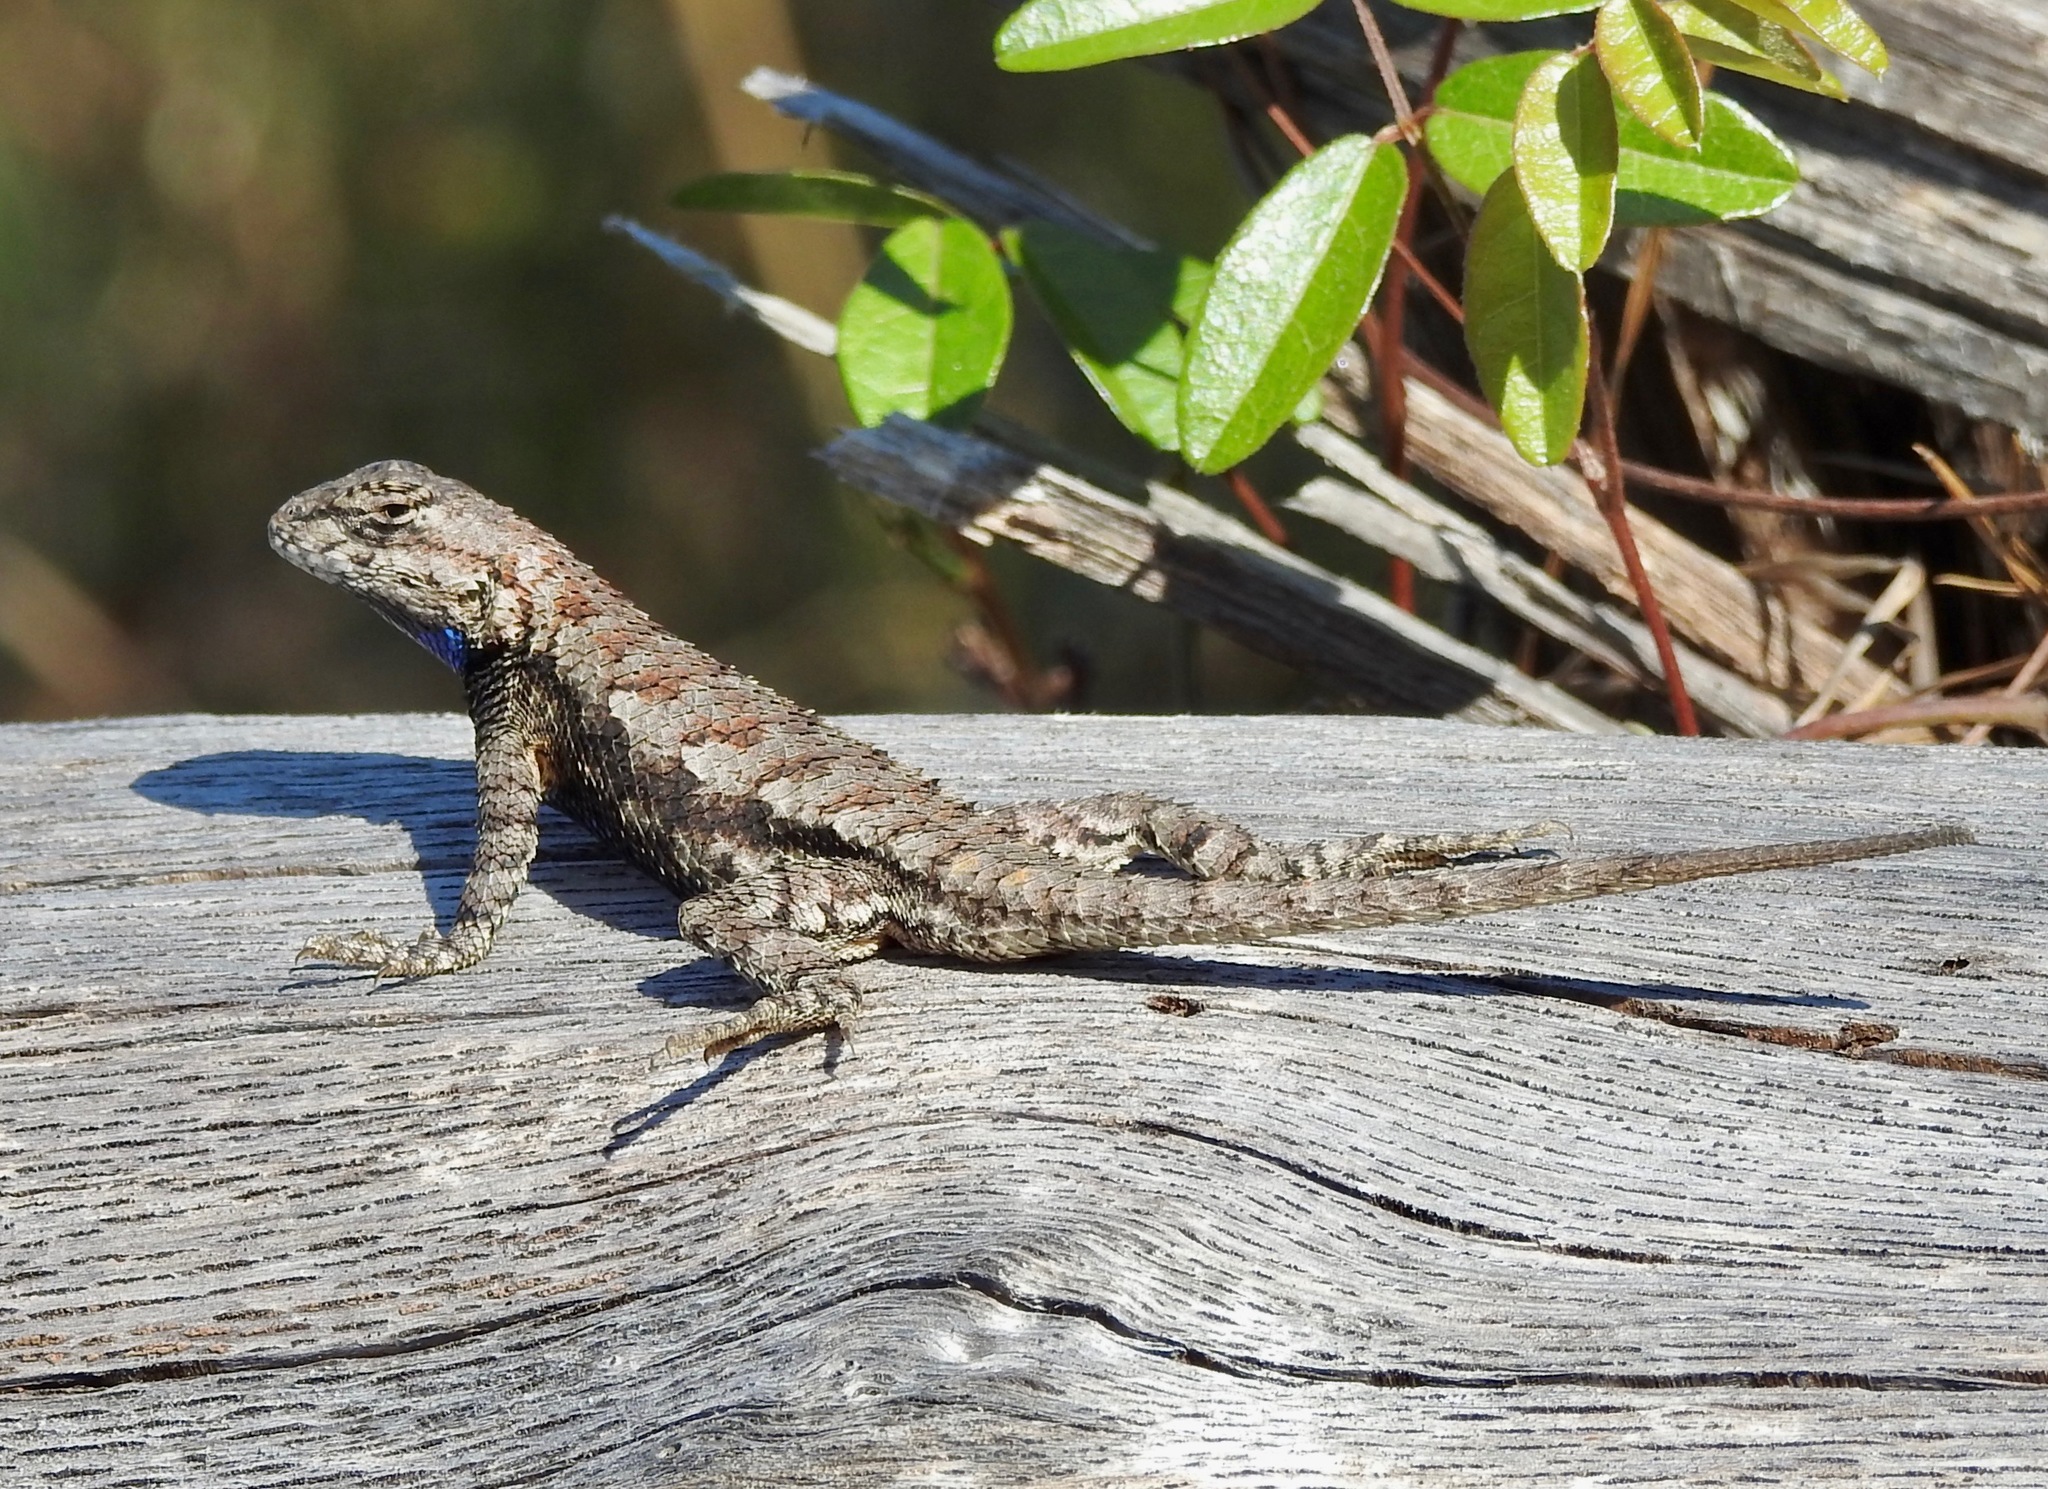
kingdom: Animalia
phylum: Chordata
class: Squamata
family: Phrynosomatidae
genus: Sceloporus
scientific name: Sceloporus undulatus
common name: Eastern fence lizard
